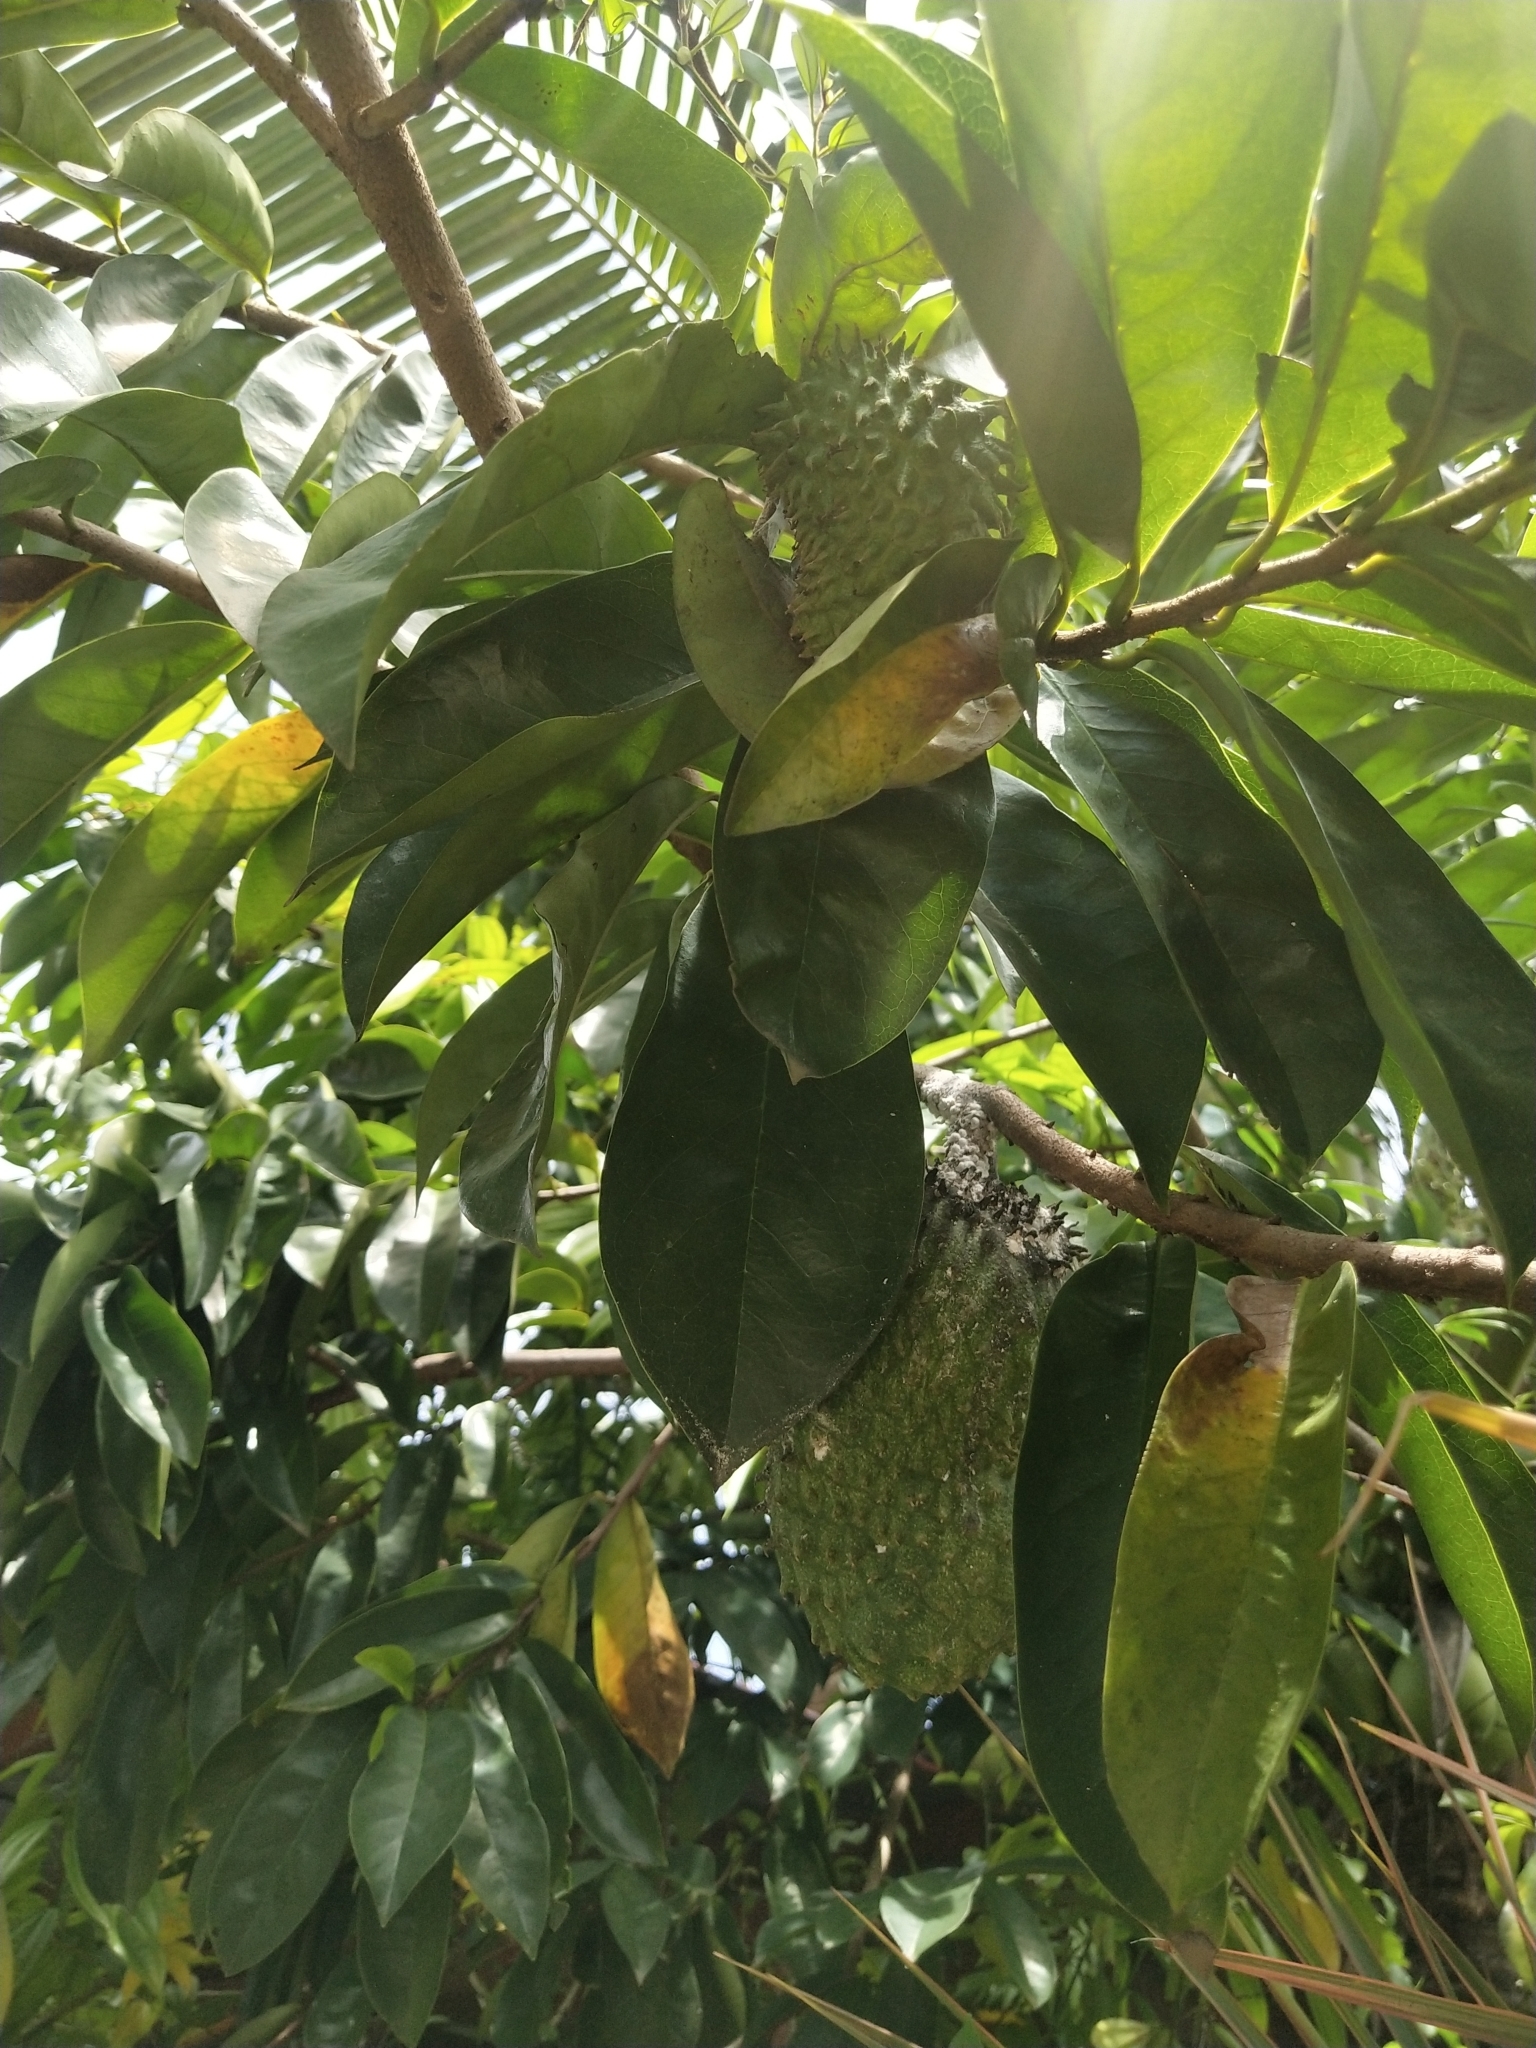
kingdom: Plantae
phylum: Tracheophyta
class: Magnoliopsida
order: Magnoliales
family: Annonaceae
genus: Annona
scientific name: Annona muricata
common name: Soursop
